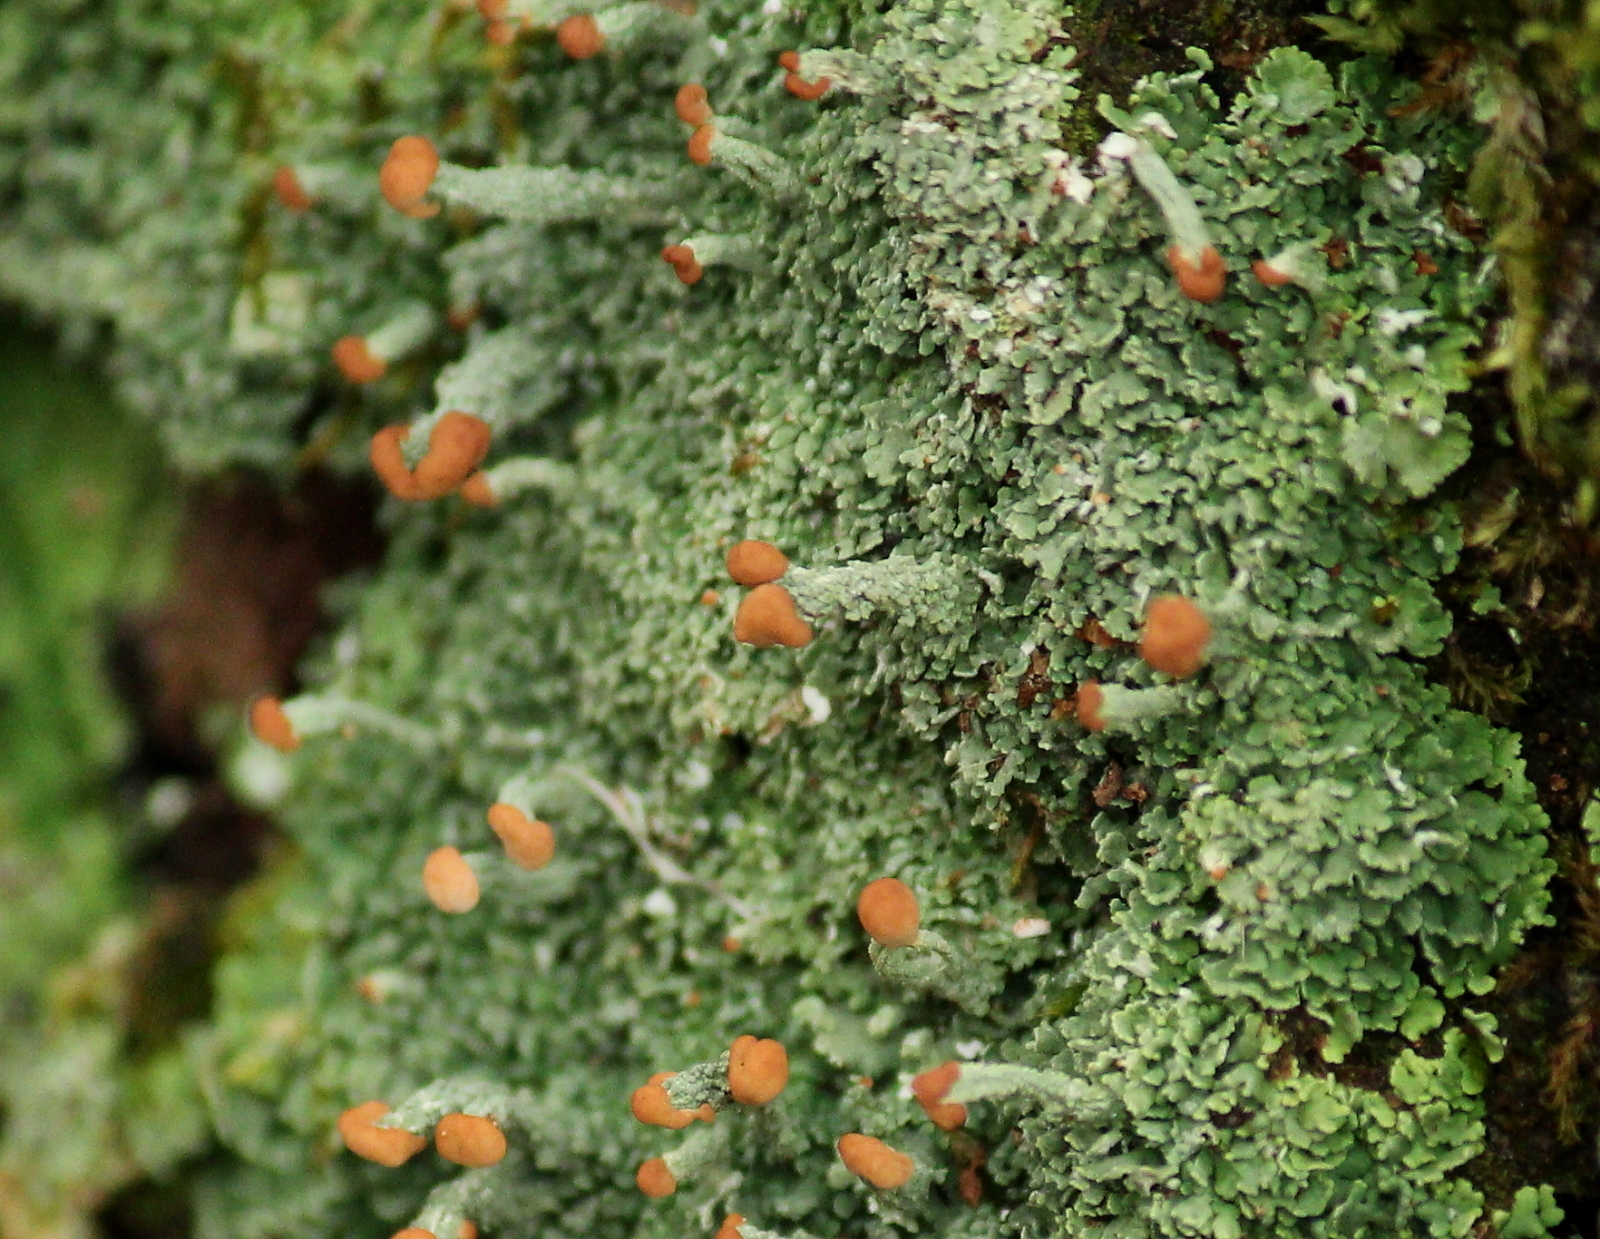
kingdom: Fungi
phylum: Ascomycota
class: Lecanoromycetes
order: Lecanorales
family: Cladoniaceae
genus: Cladonia
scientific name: Cladonia cristatella
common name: British soldier lichen
